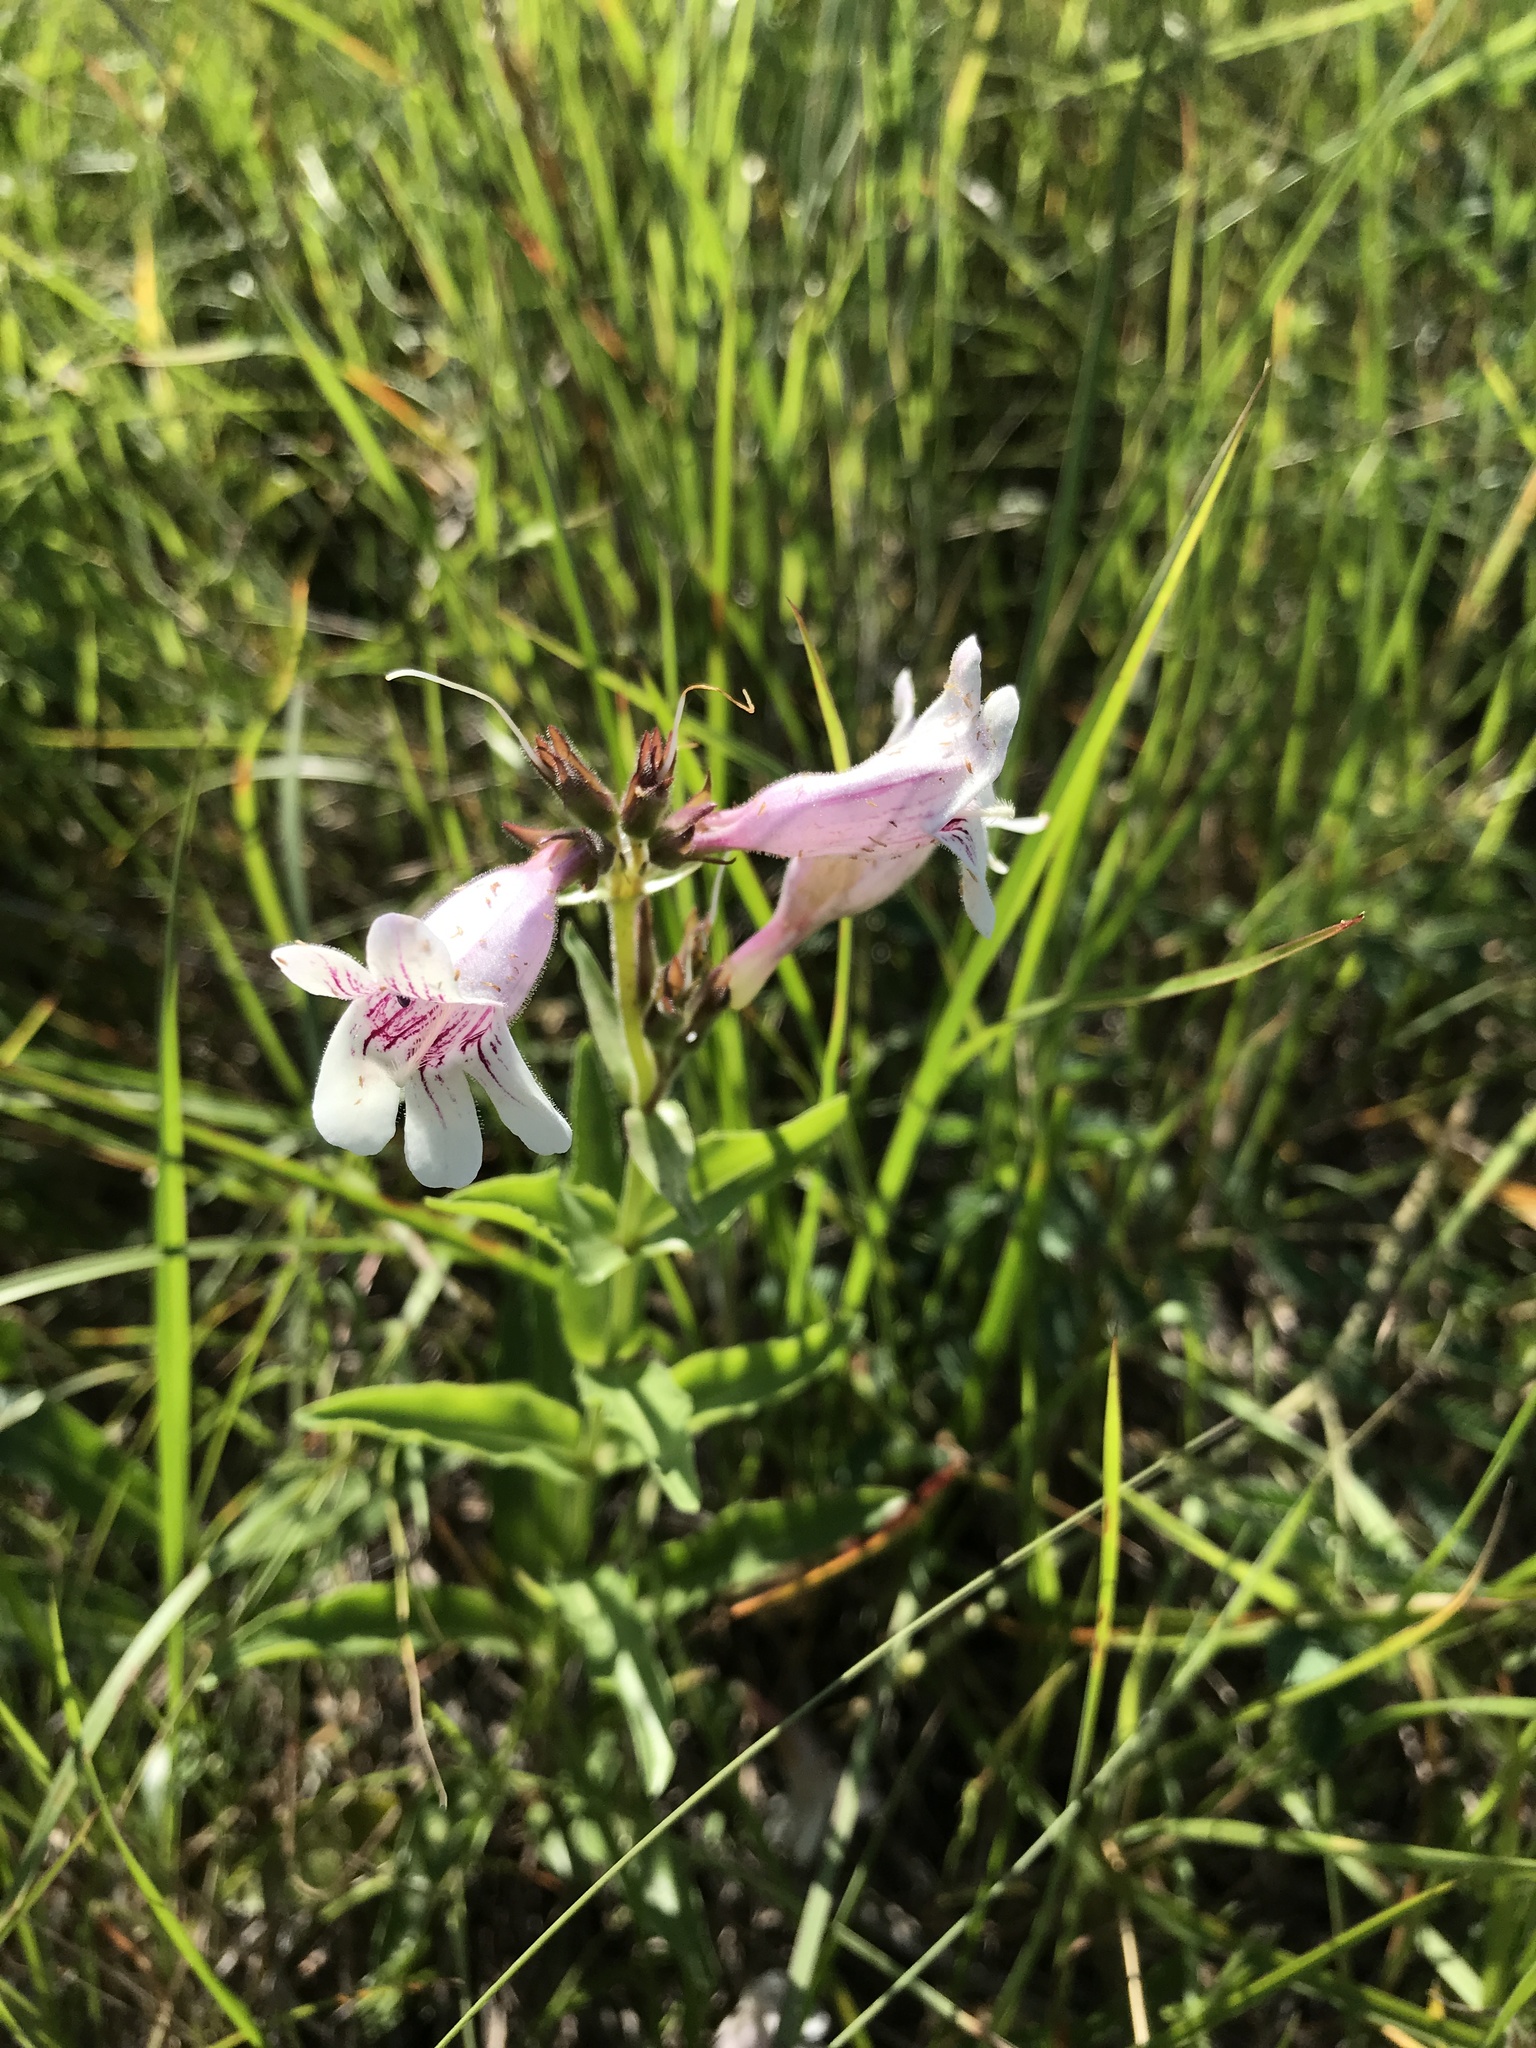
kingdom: Plantae
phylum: Tracheophyta
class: Magnoliopsida
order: Lamiales
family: Plantaginaceae
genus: Penstemon
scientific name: Penstemon cobaea
